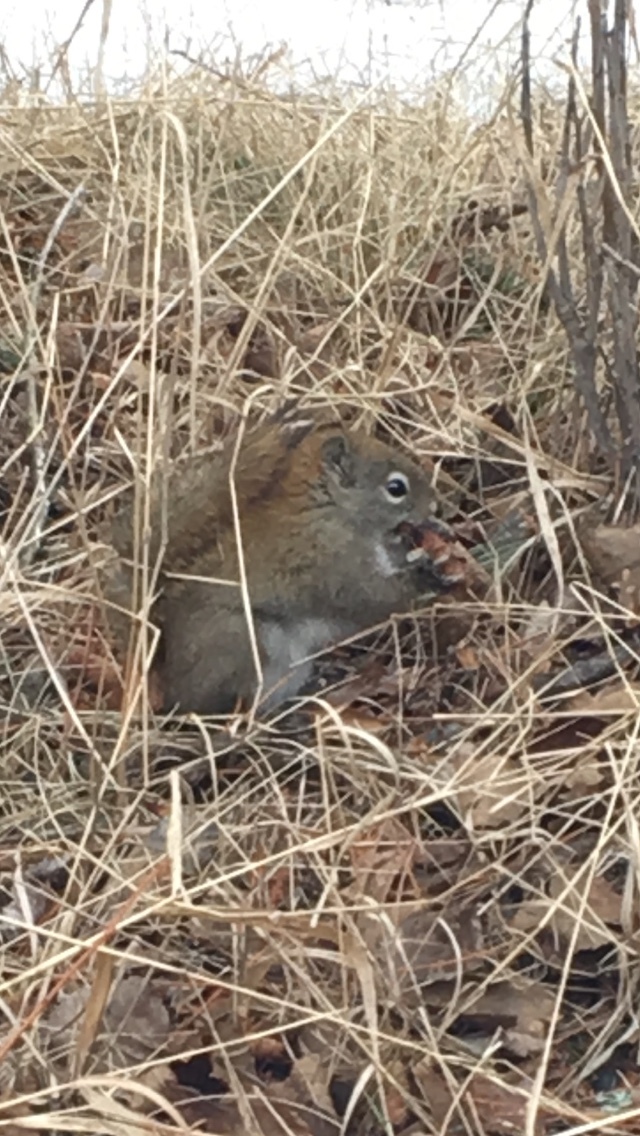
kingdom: Animalia
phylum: Chordata
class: Mammalia
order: Rodentia
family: Sciuridae
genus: Tamiasciurus
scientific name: Tamiasciurus hudsonicus
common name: Red squirrel
